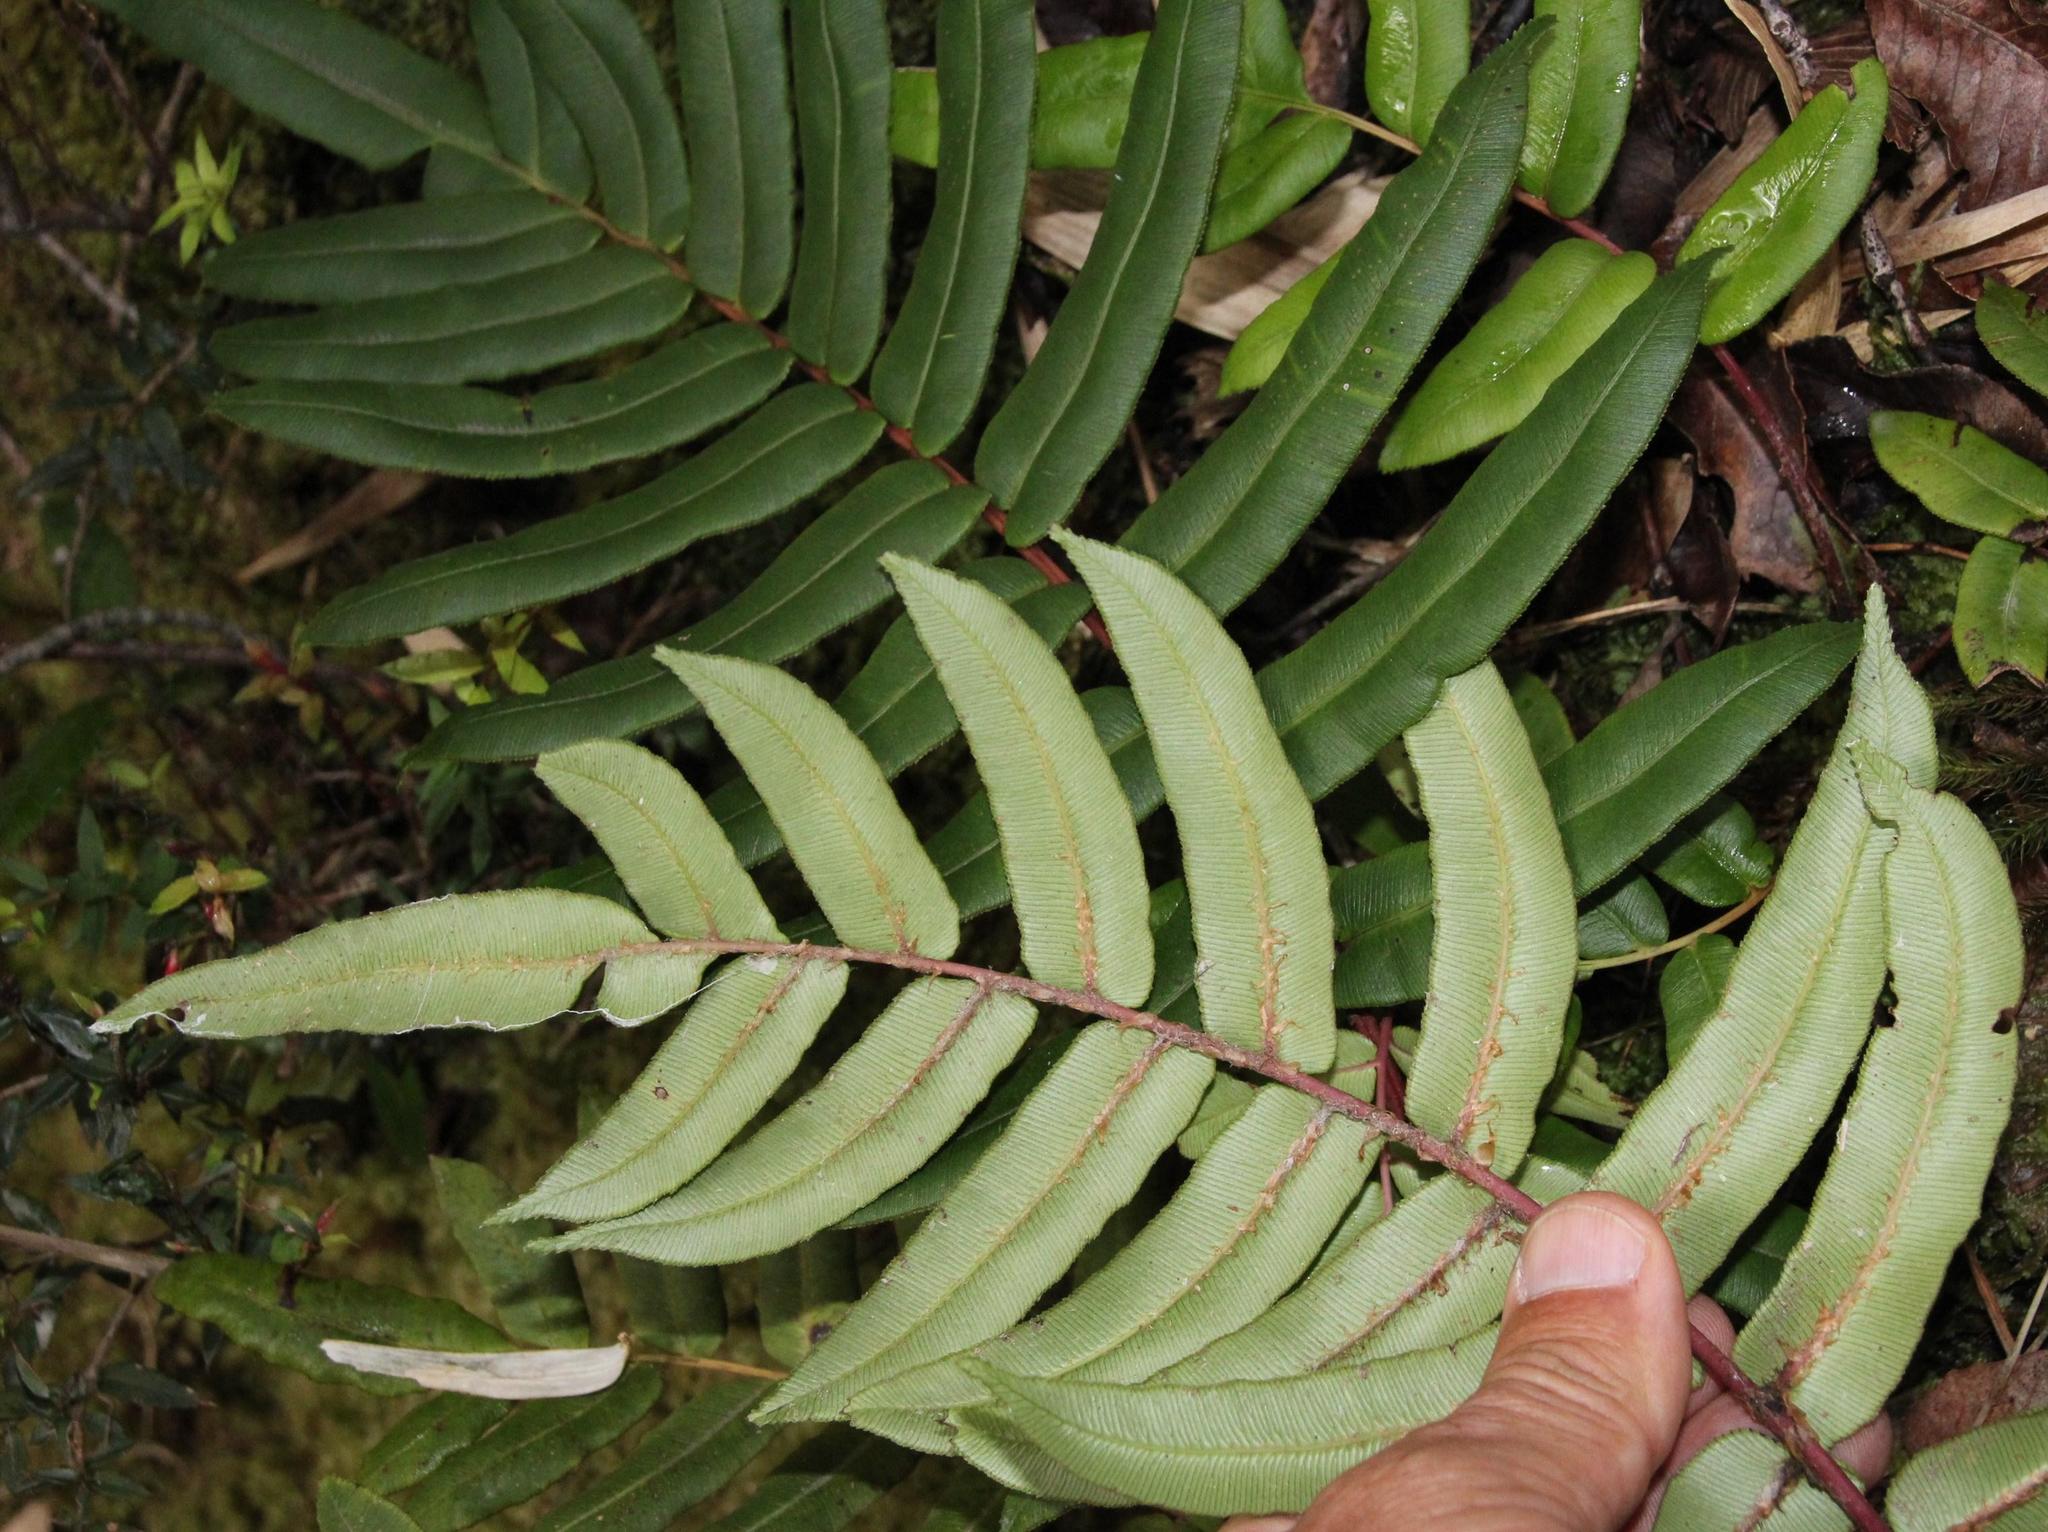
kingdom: Plantae
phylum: Tracheophyta
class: Polypodiopsida
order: Polypodiales
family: Blechnaceae
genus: Parablechnum
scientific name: Parablechnum chilense
